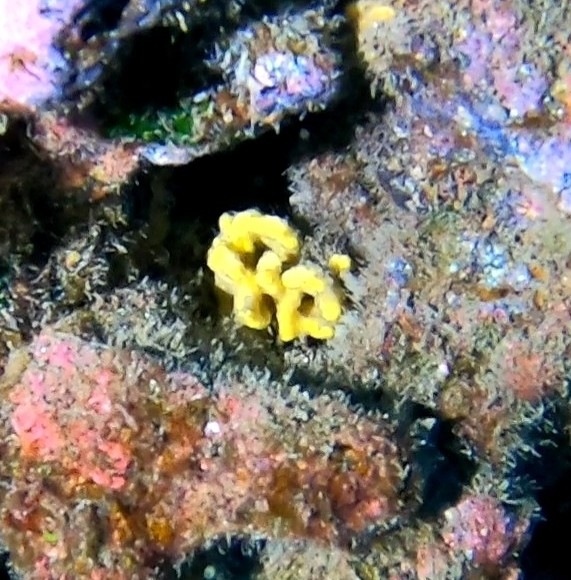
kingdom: Animalia
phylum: Porifera
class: Demospongiae
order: Axinellida
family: Axinellidae
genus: Axinella
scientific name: Axinella damicornis
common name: Crumpled duster sponge
